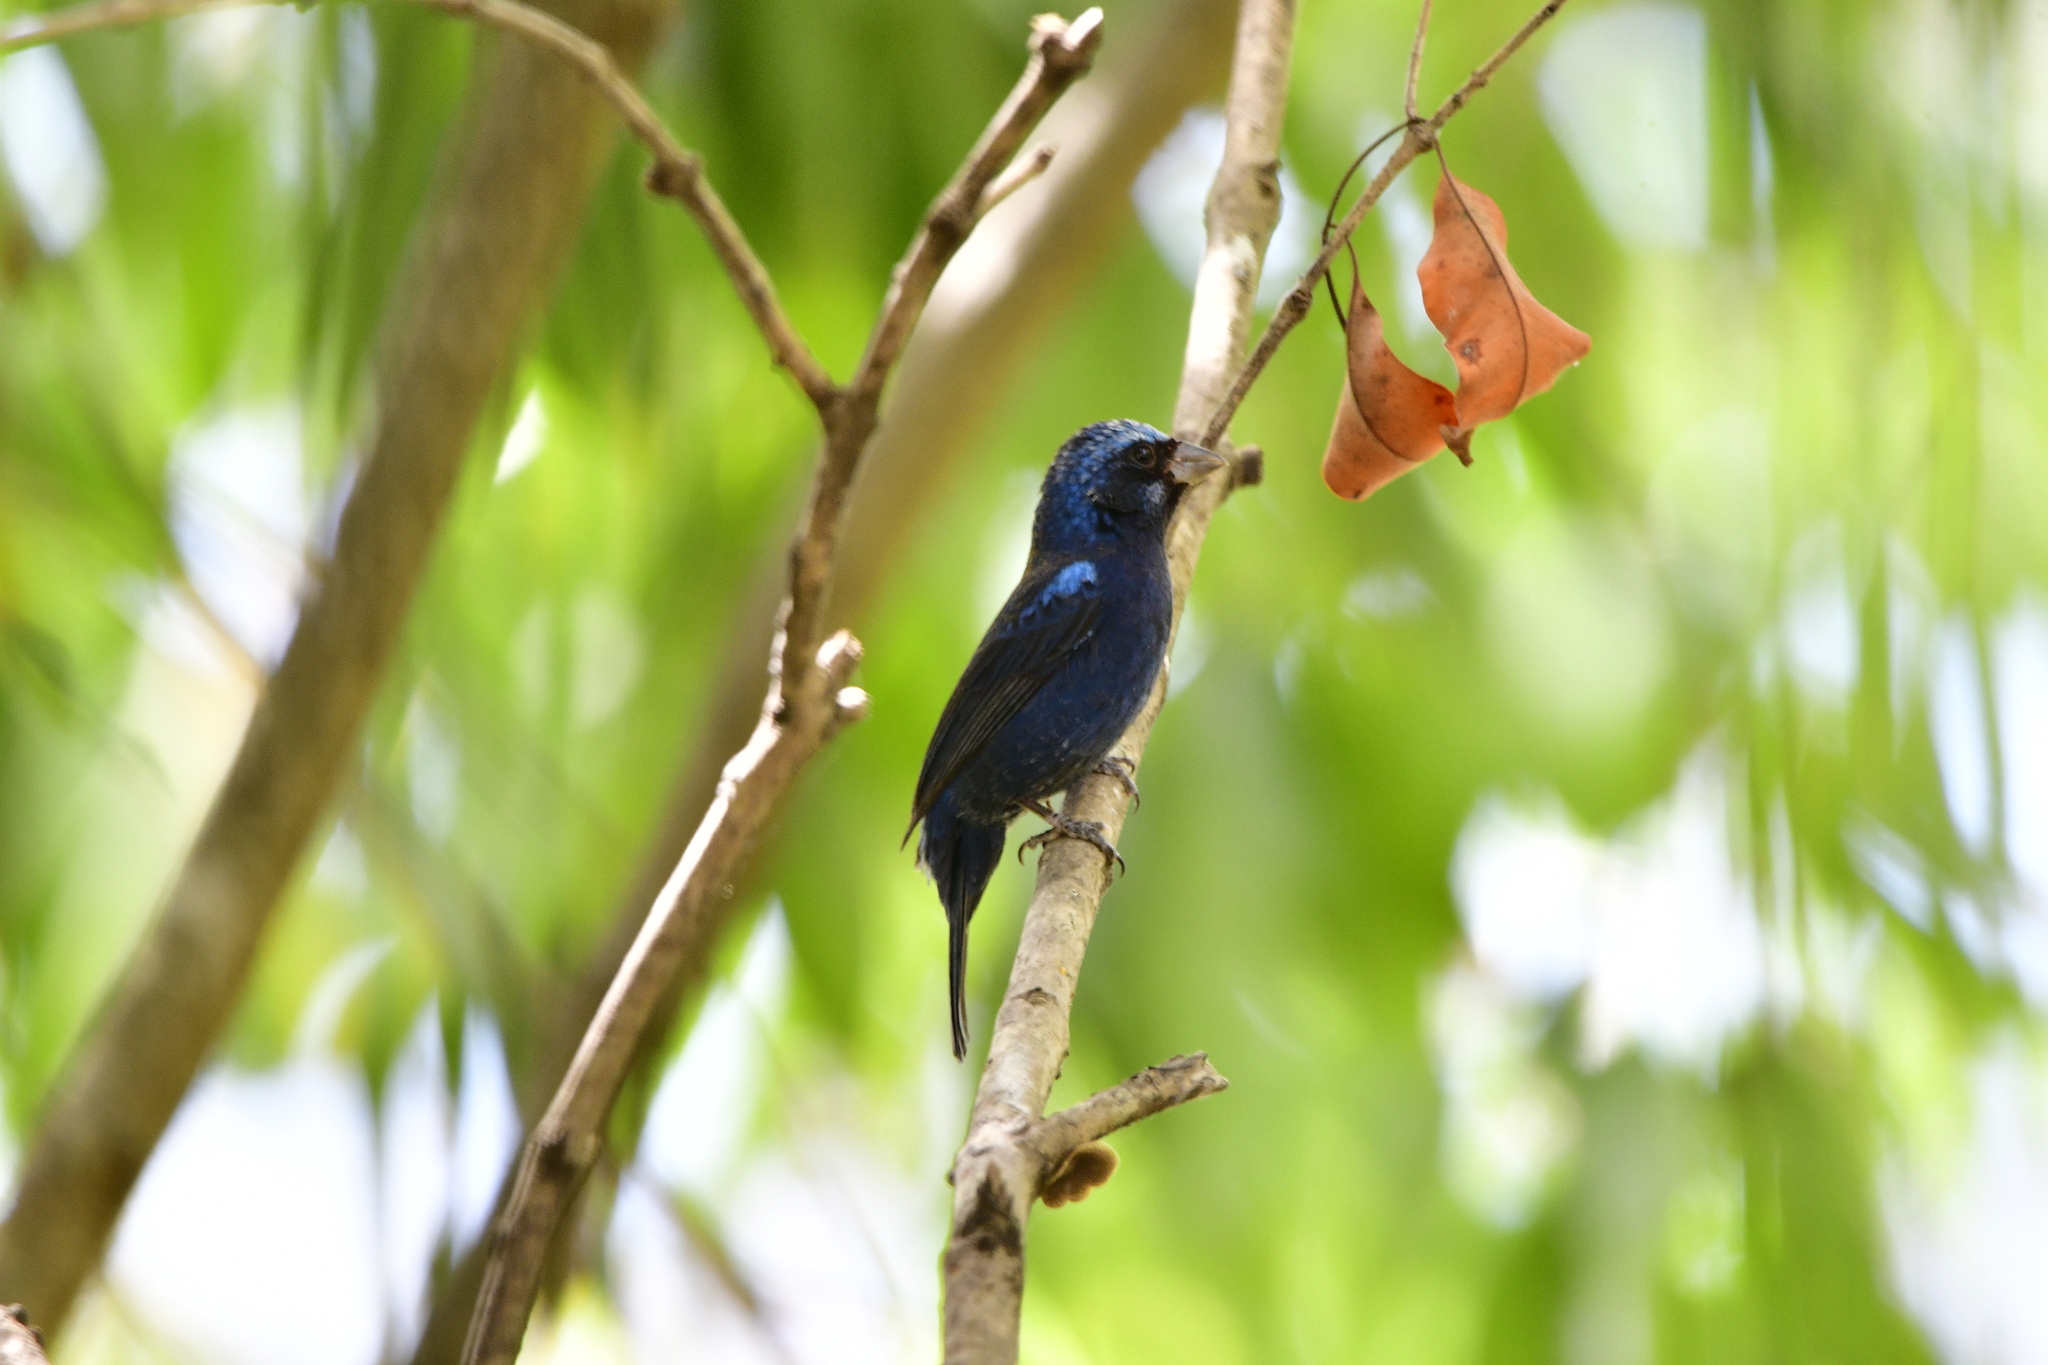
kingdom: Animalia
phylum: Chordata
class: Aves
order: Passeriformes
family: Cardinalidae
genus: Cyanocompsa
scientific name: Cyanocompsa parellina
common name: Blue bunting
